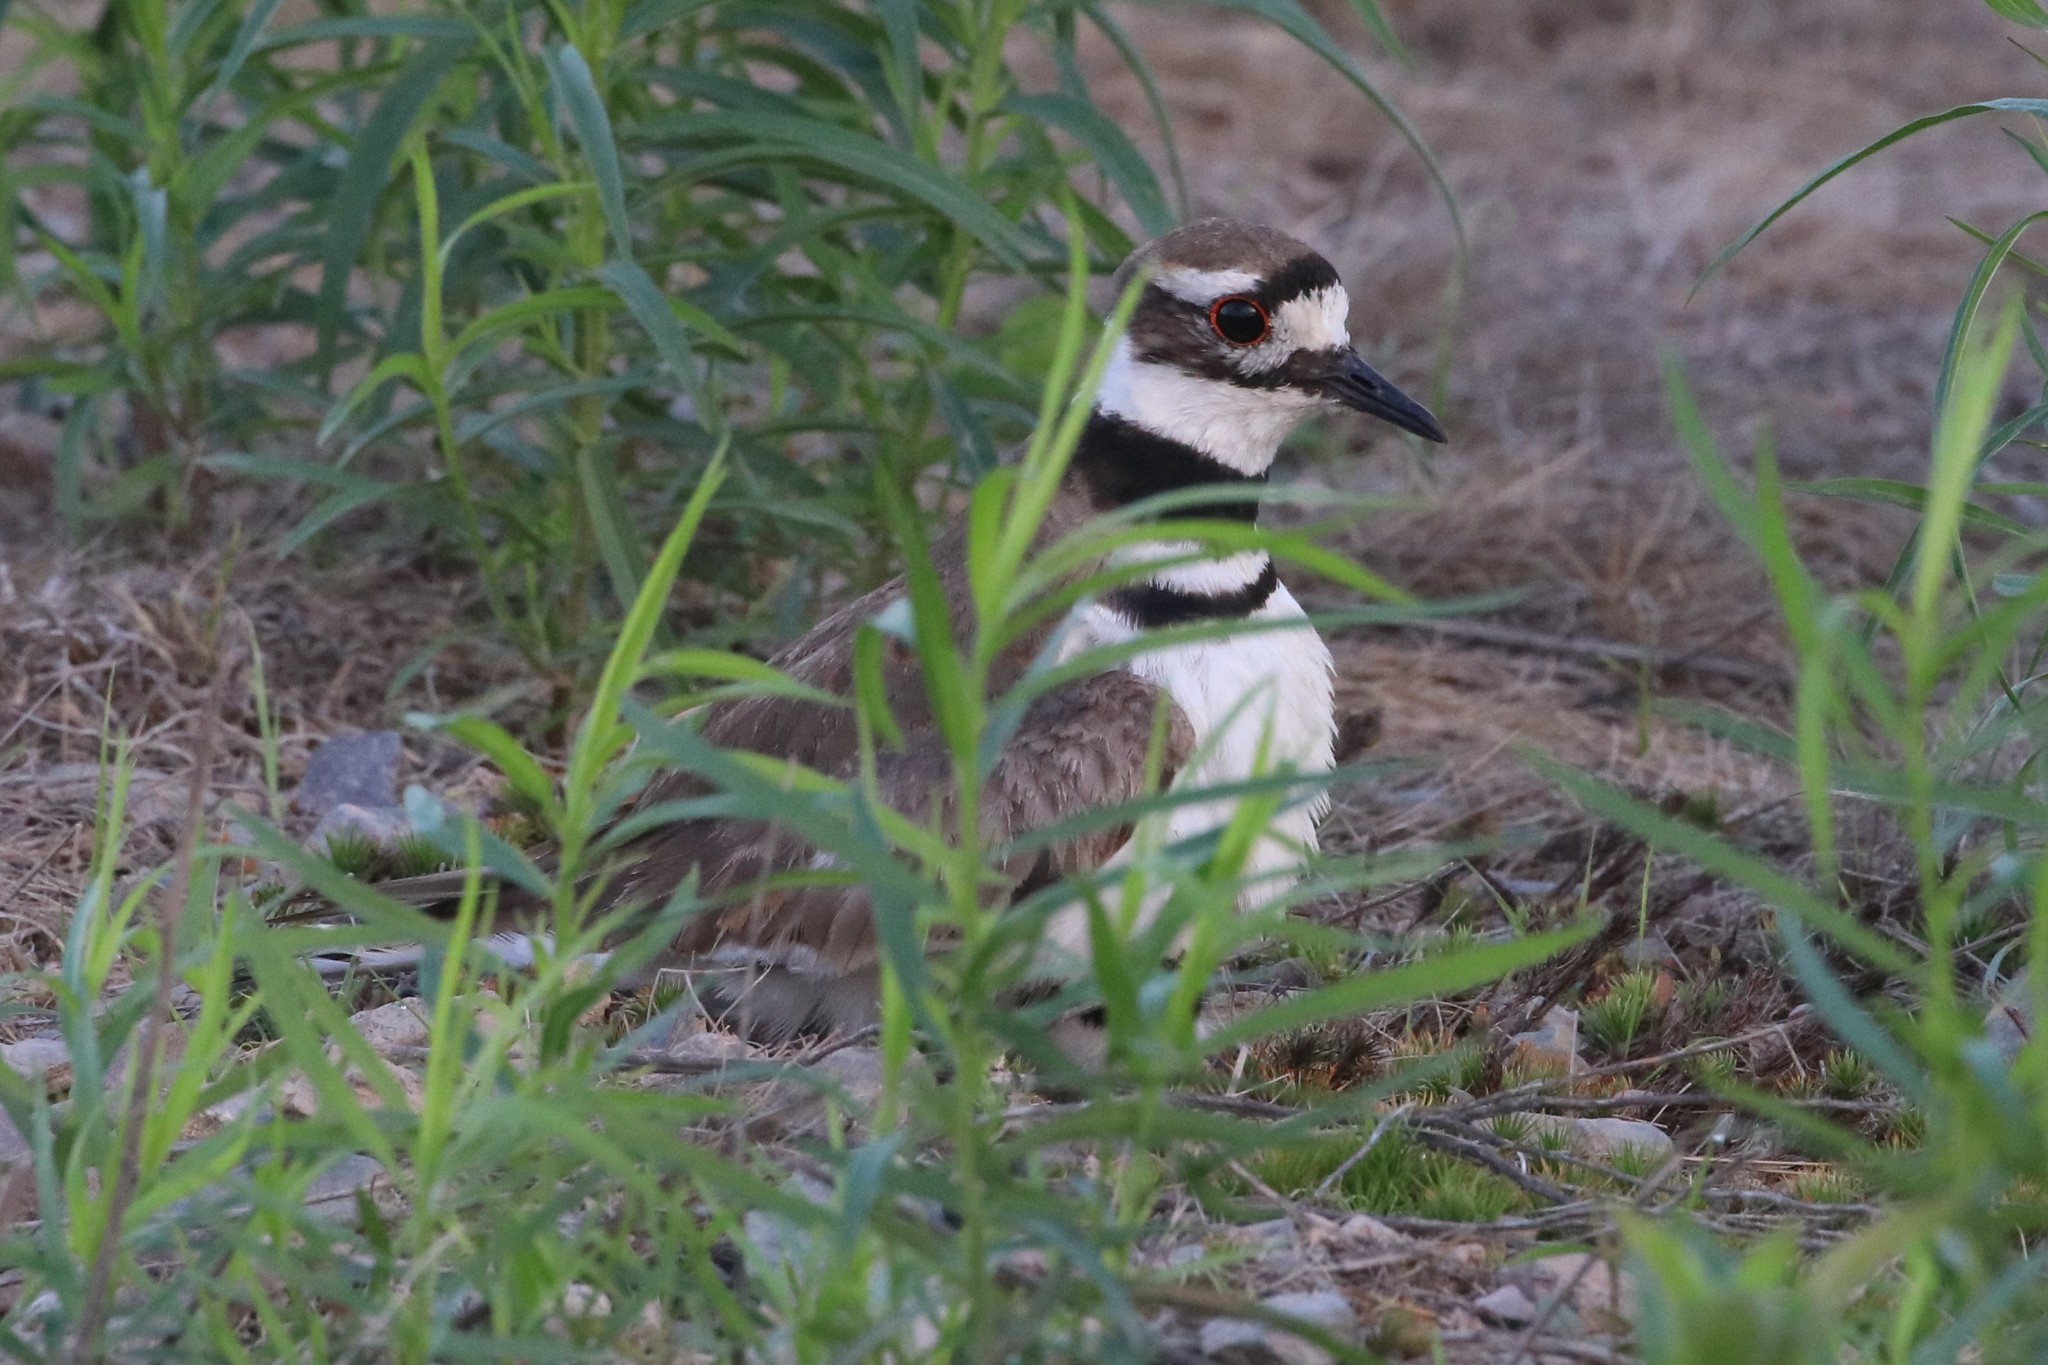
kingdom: Animalia
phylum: Chordata
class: Aves
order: Charadriiformes
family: Charadriidae
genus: Charadrius
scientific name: Charadrius vociferus
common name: Killdeer
